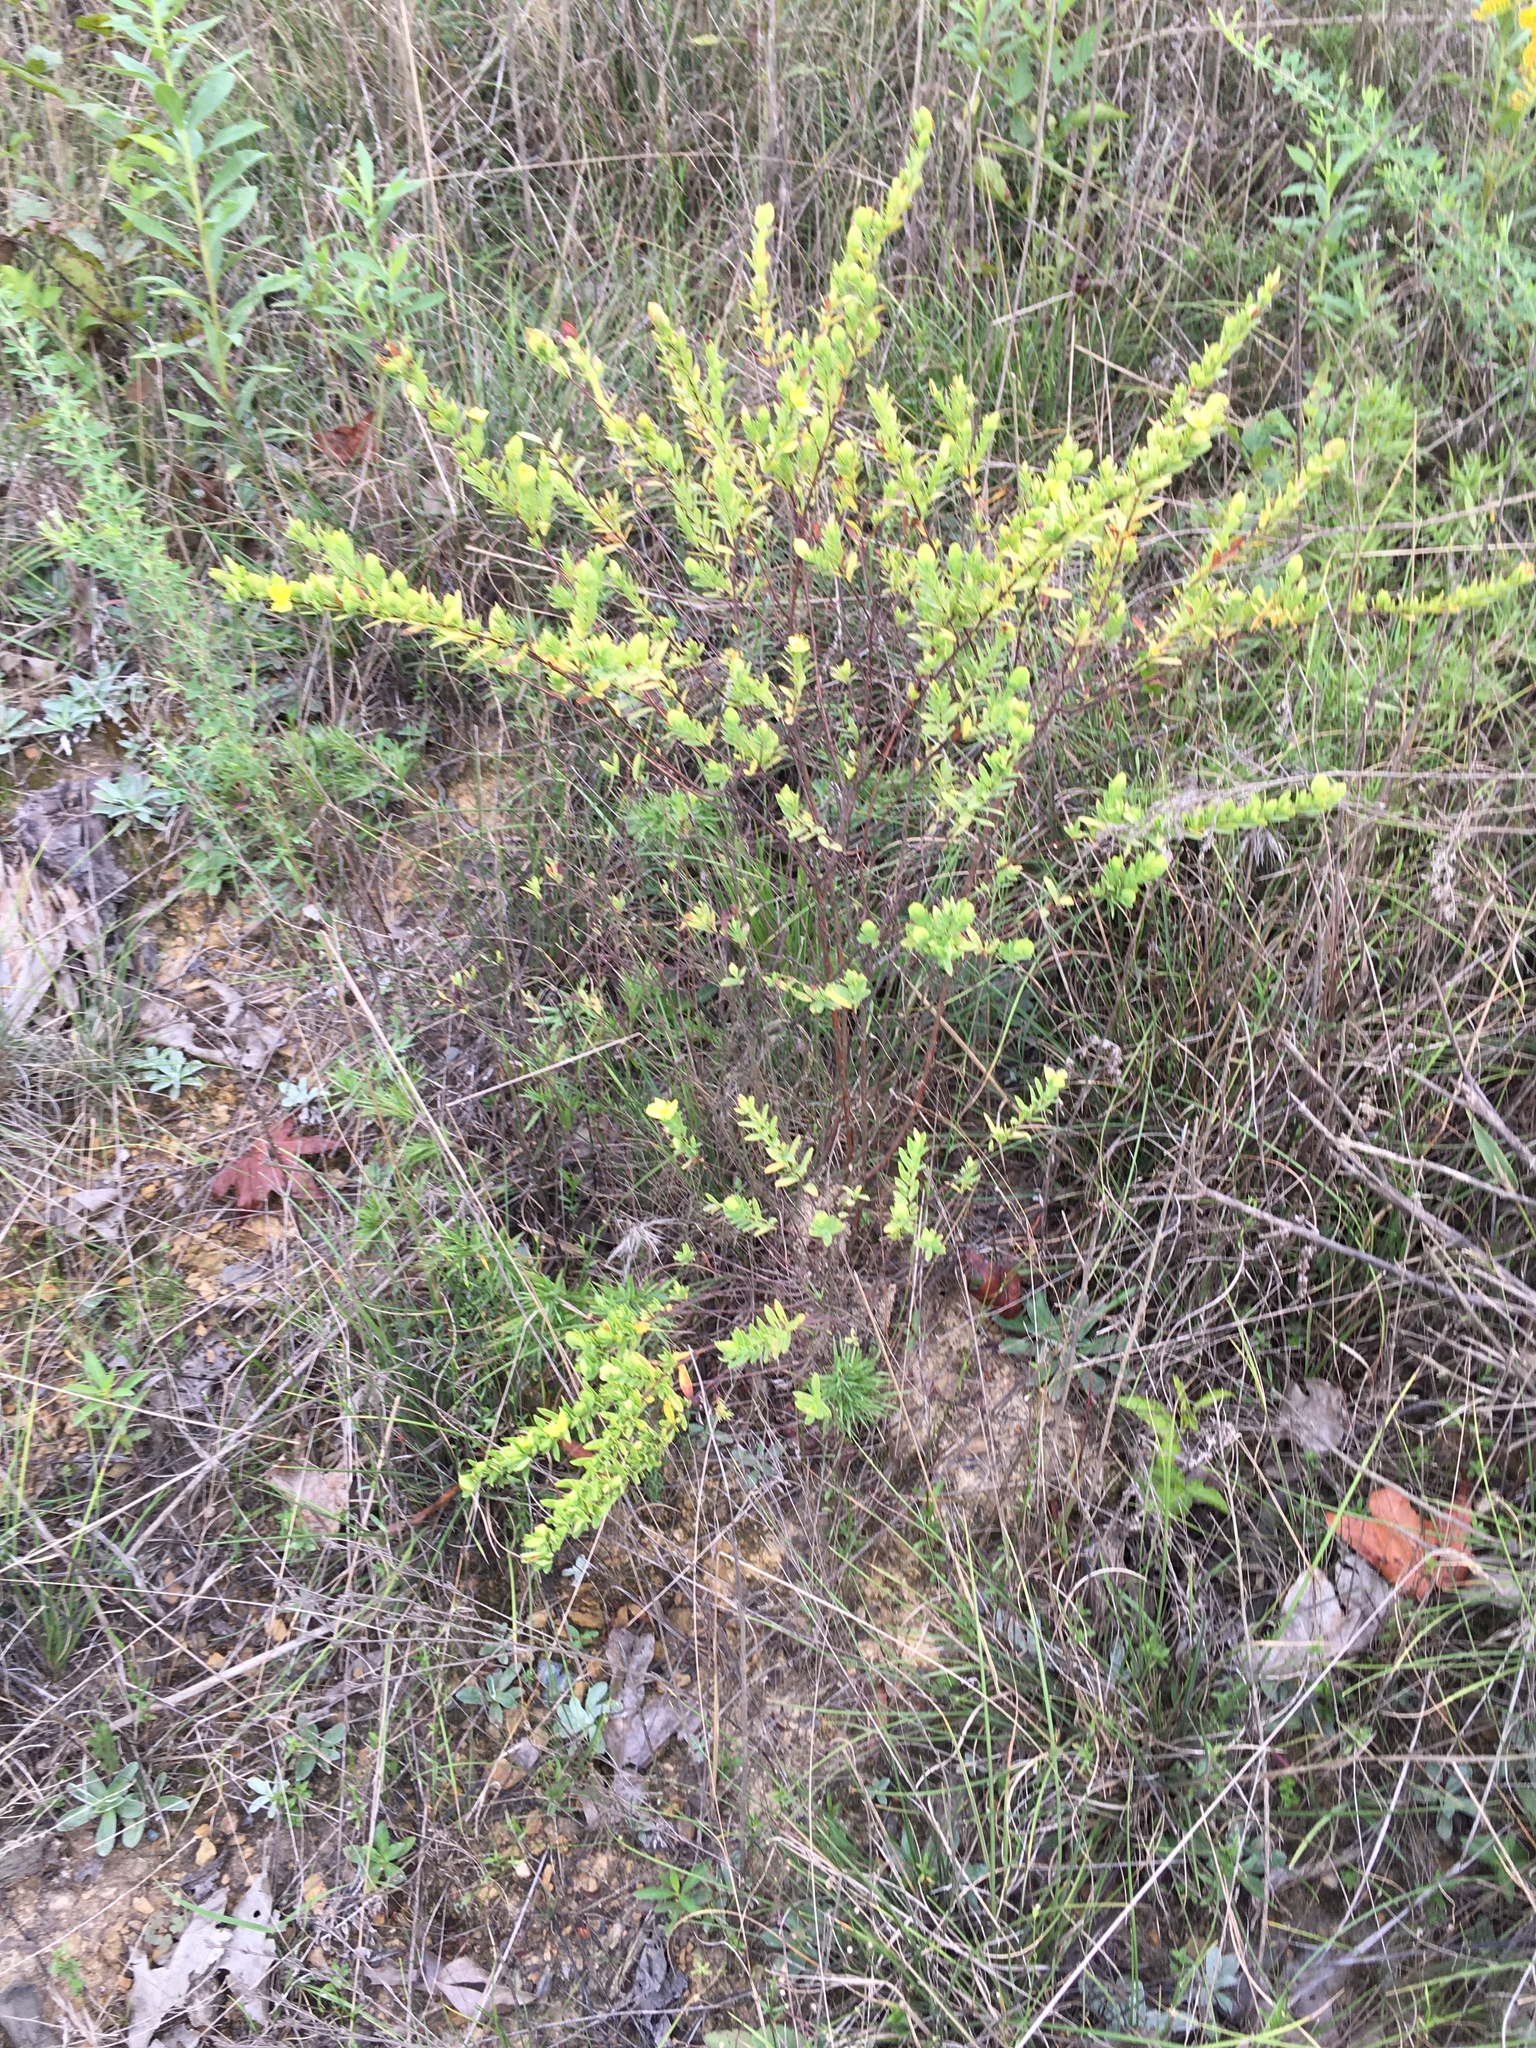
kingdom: Plantae
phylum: Tracheophyta
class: Magnoliopsida
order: Malpighiales
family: Hypericaceae
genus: Hypericum
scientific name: Hypericum hypericoides
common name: St. andrew's cross
